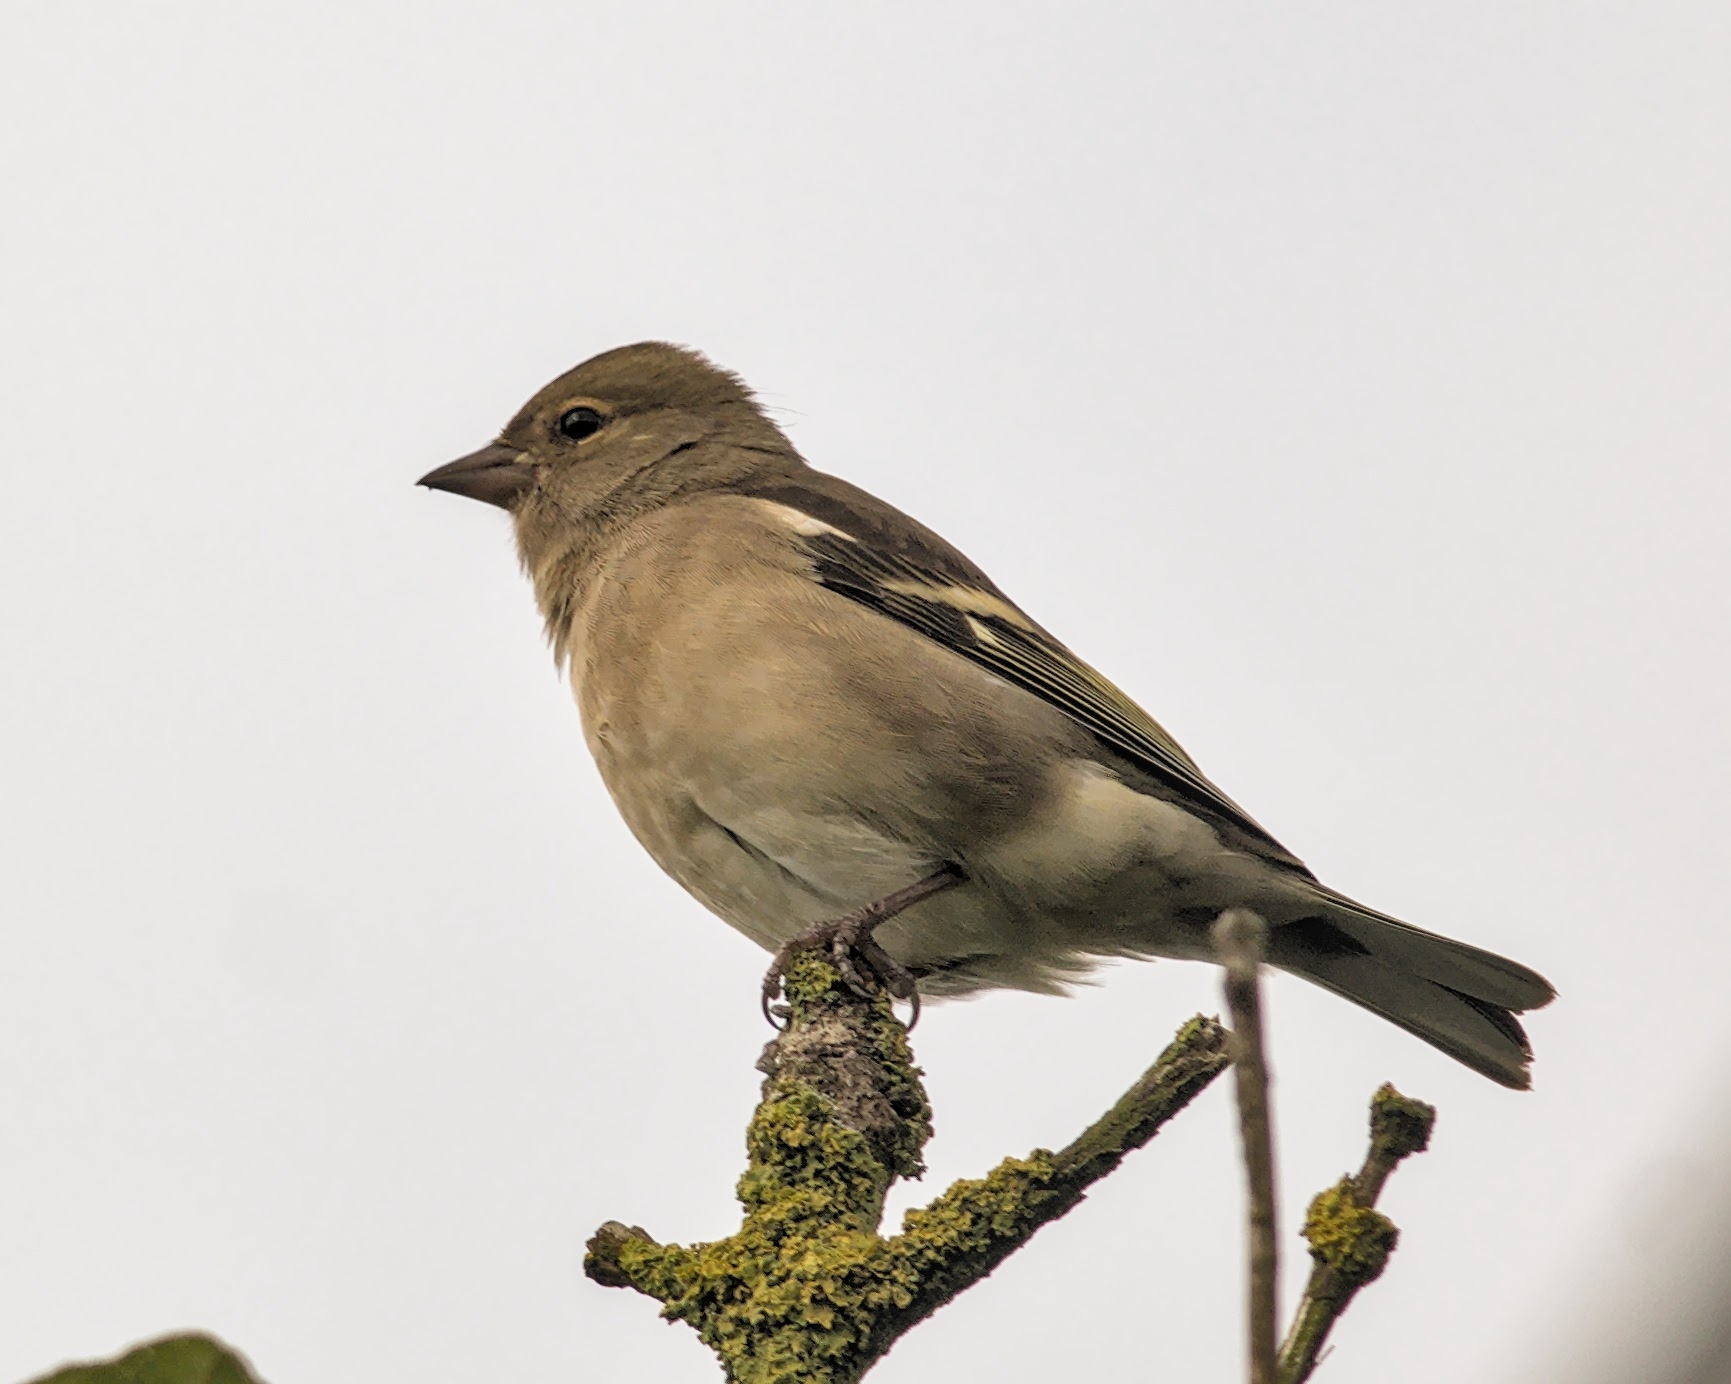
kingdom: Animalia
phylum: Chordata
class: Aves
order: Passeriformes
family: Fringillidae
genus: Fringilla
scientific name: Fringilla coelebs
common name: Common chaffinch
